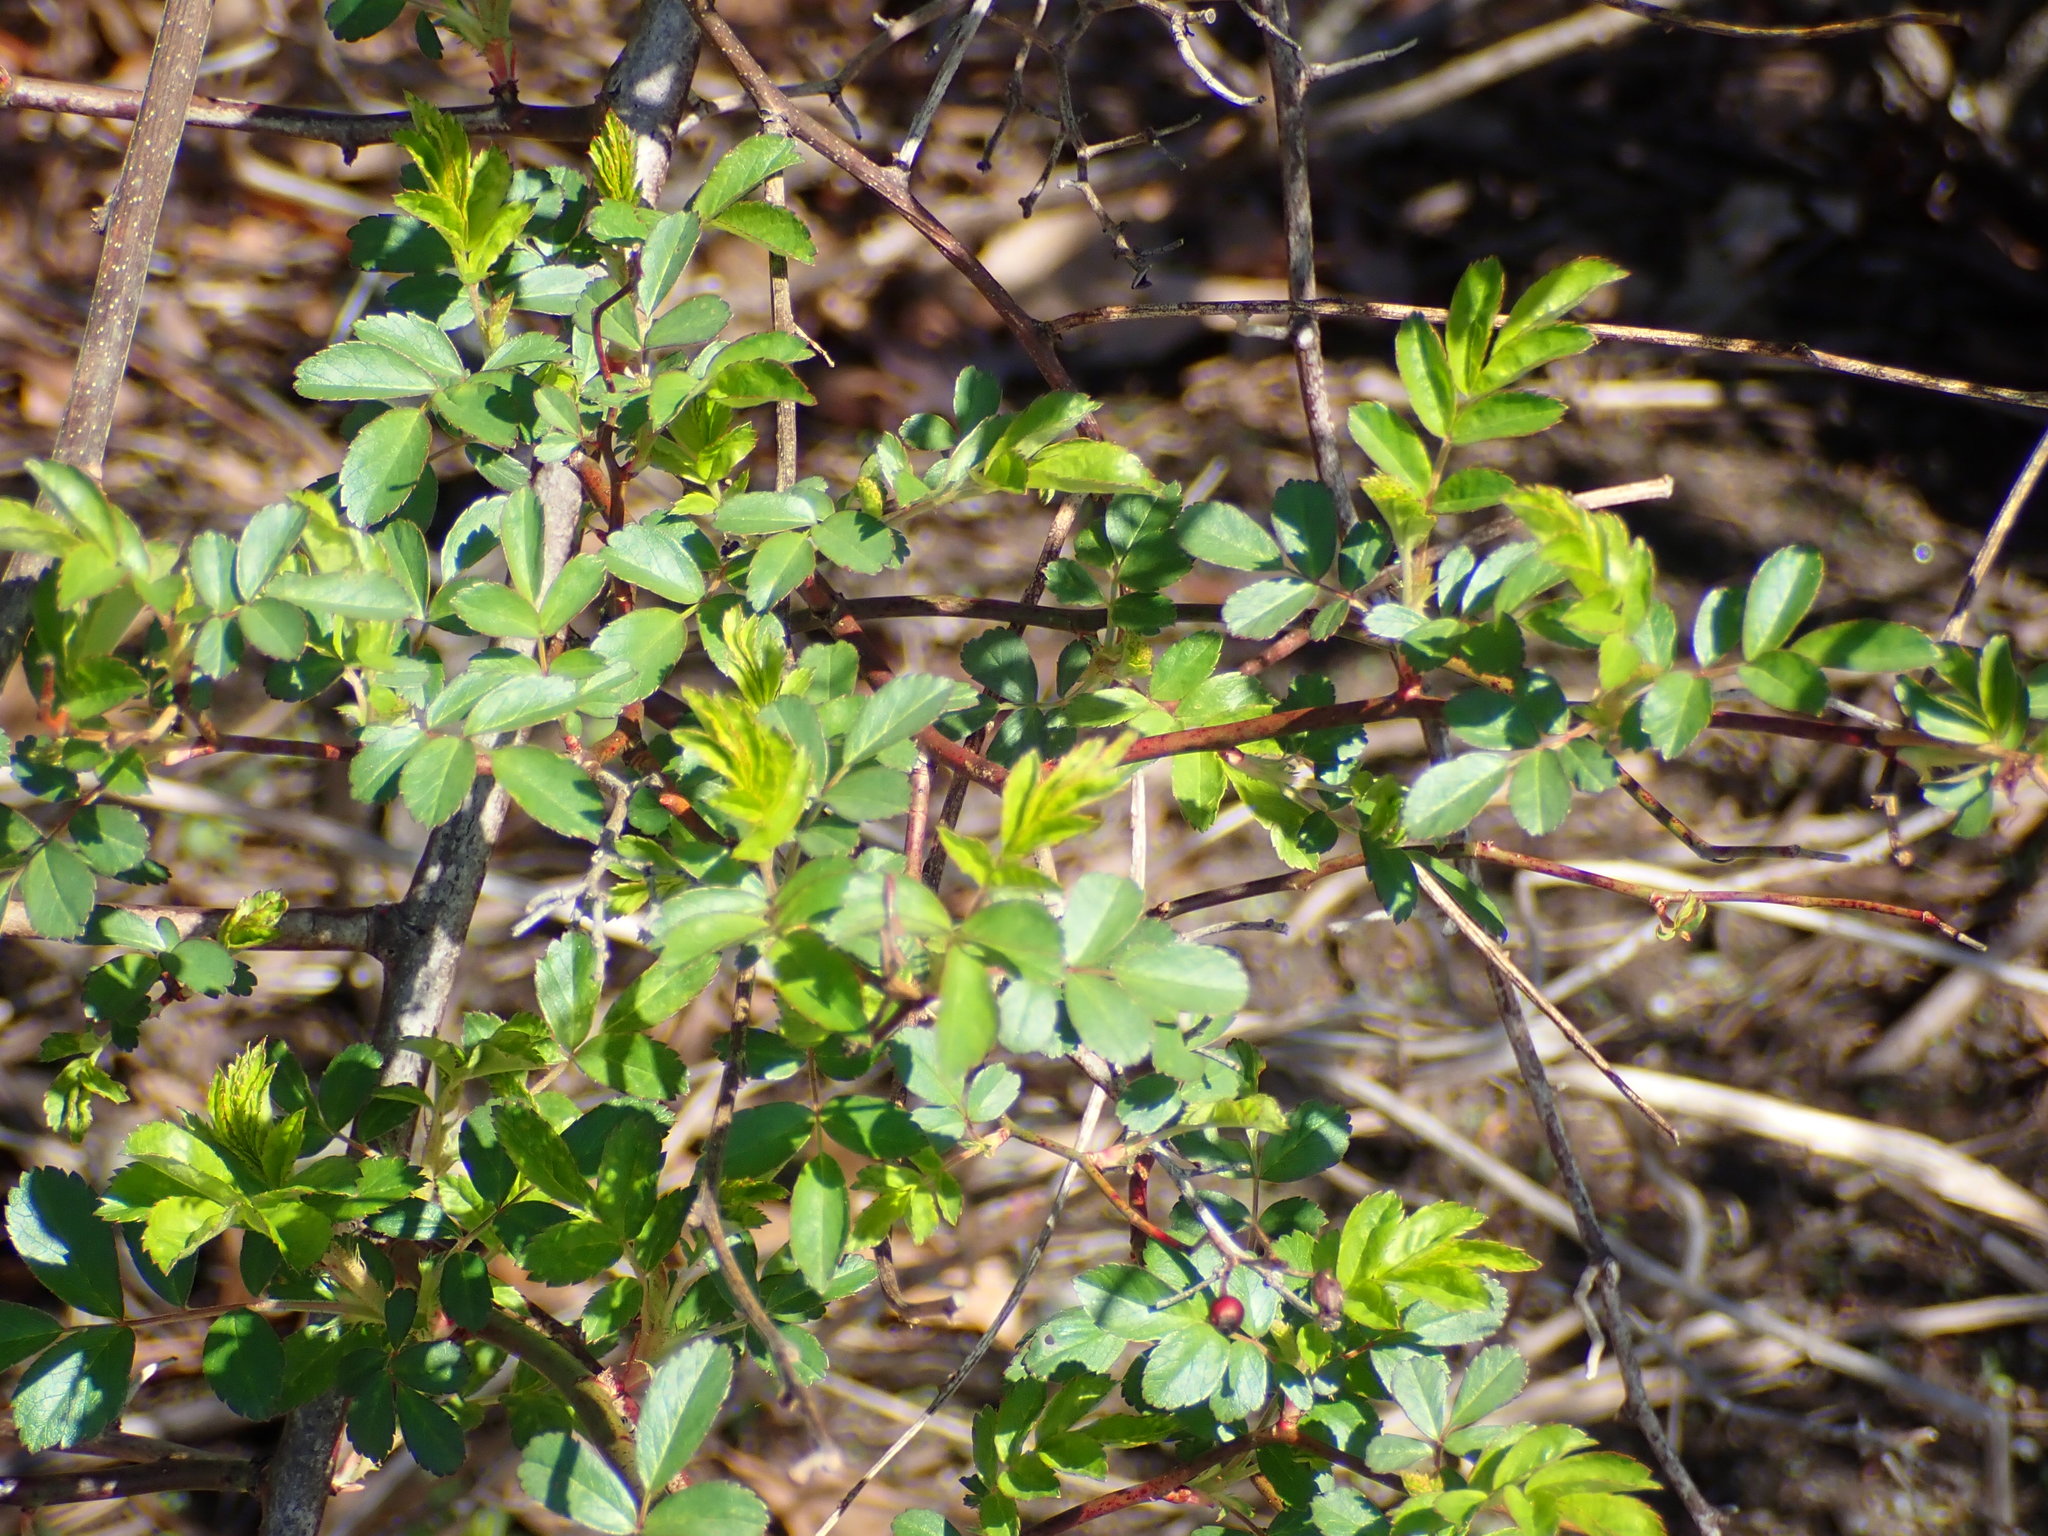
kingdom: Plantae
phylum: Tracheophyta
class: Magnoliopsida
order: Rosales
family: Rosaceae
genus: Rosa
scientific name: Rosa multiflora
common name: Multiflora rose
